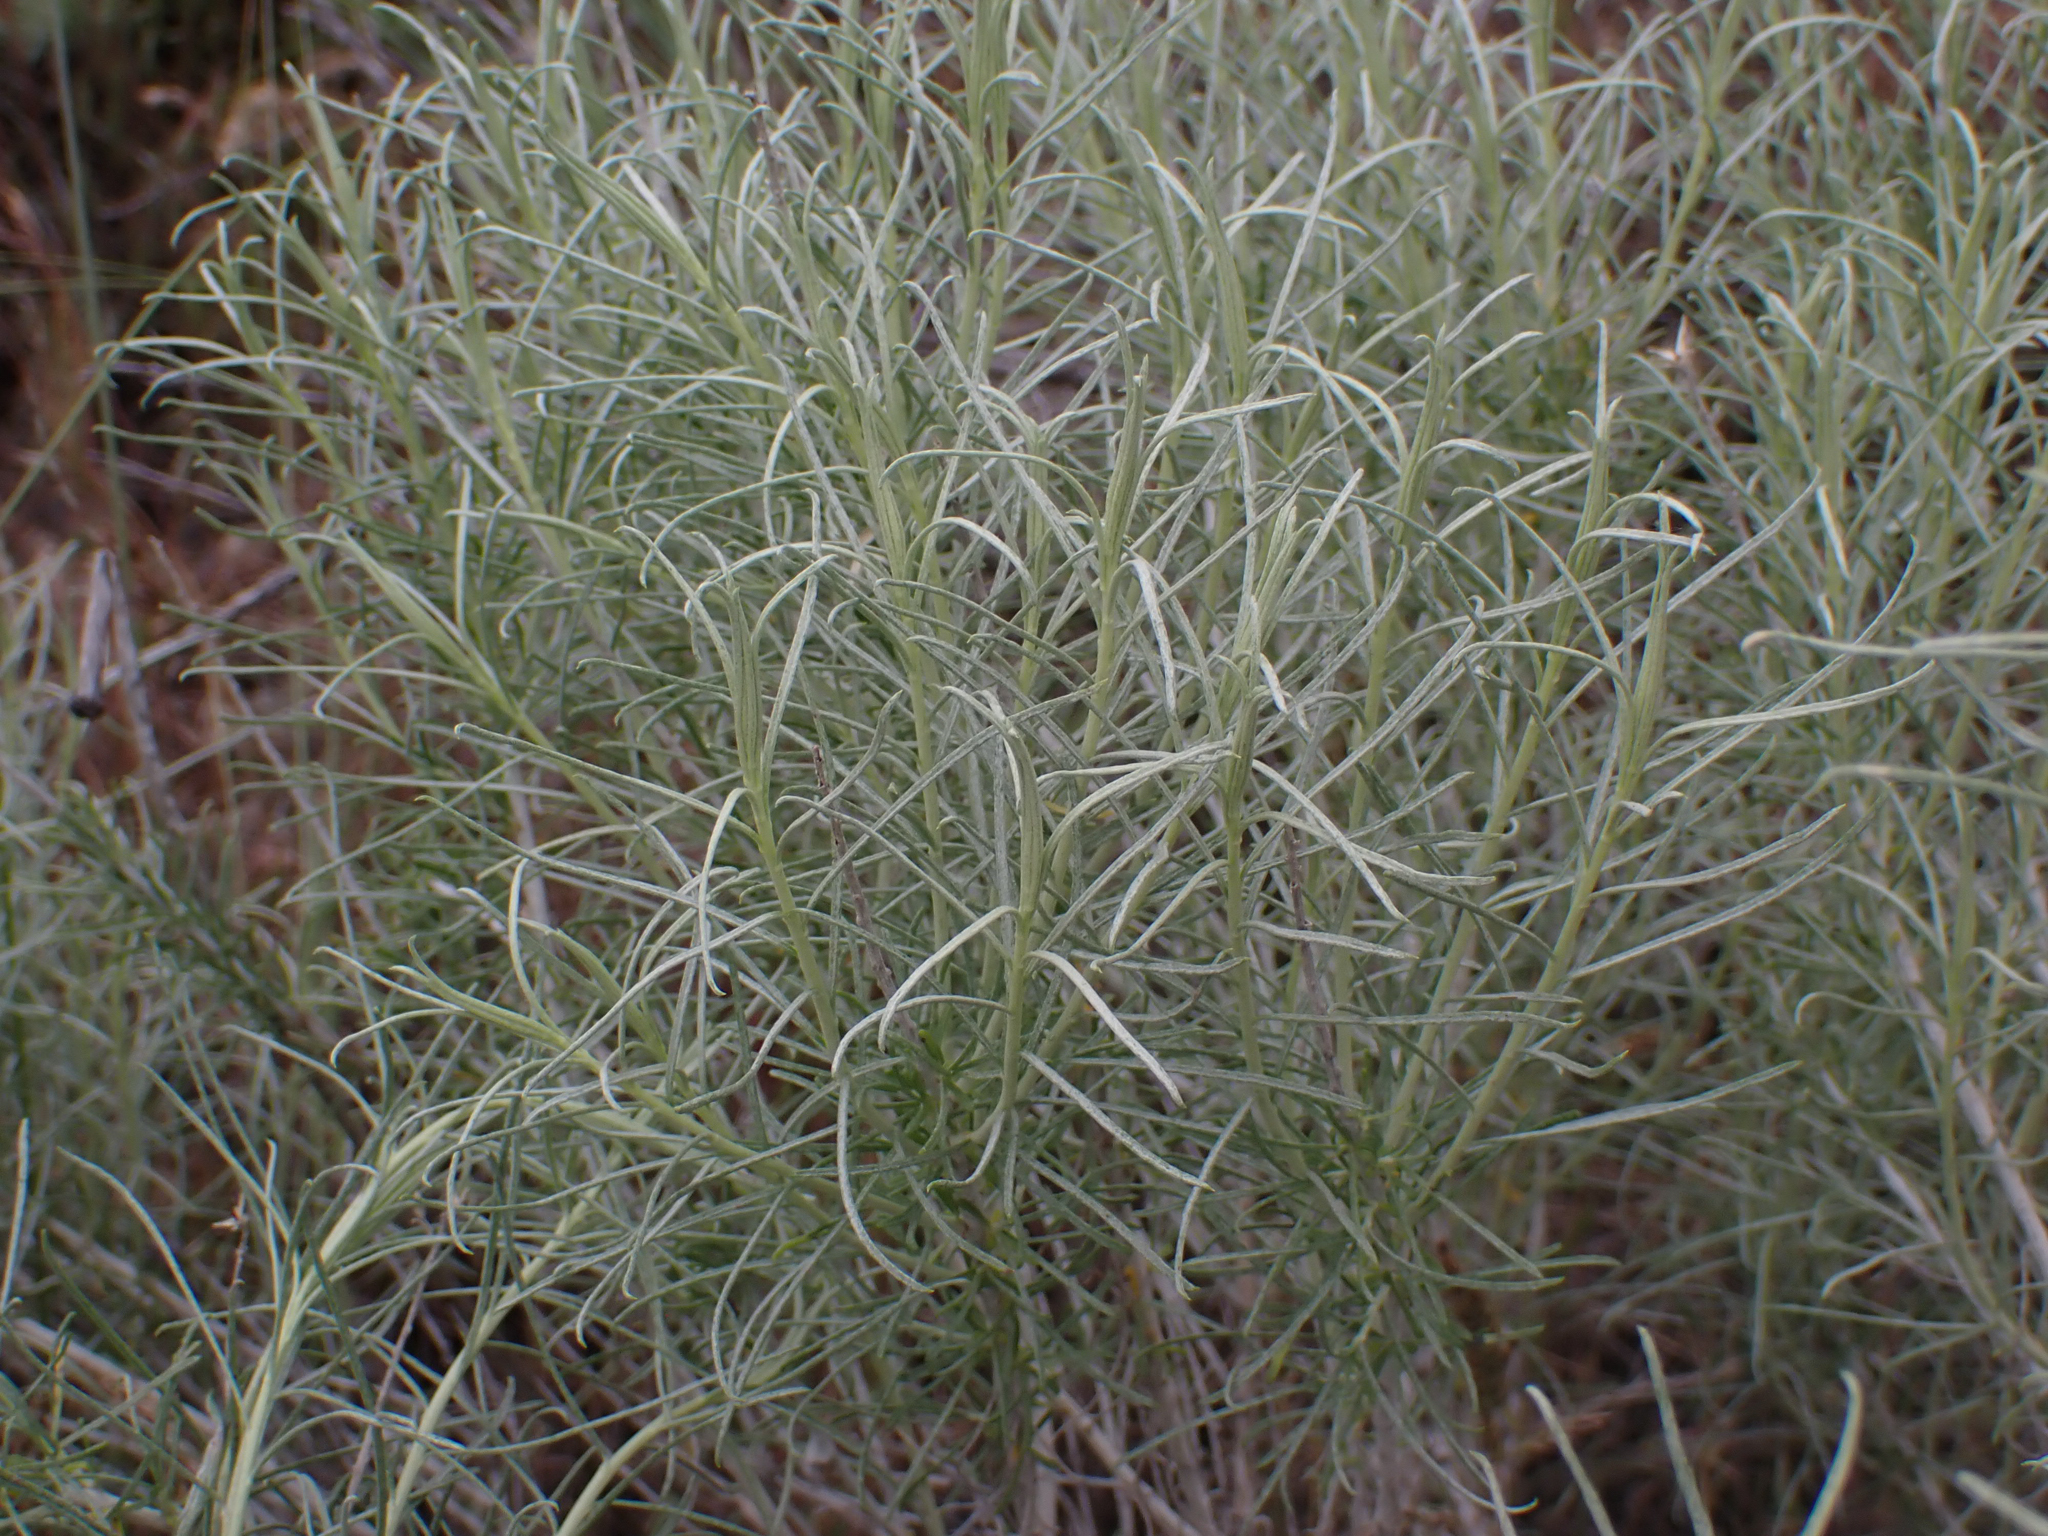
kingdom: Plantae
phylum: Tracheophyta
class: Magnoliopsida
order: Asterales
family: Asteraceae
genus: Ericameria
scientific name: Ericameria nauseosa
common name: Rubber rabbitbrush
